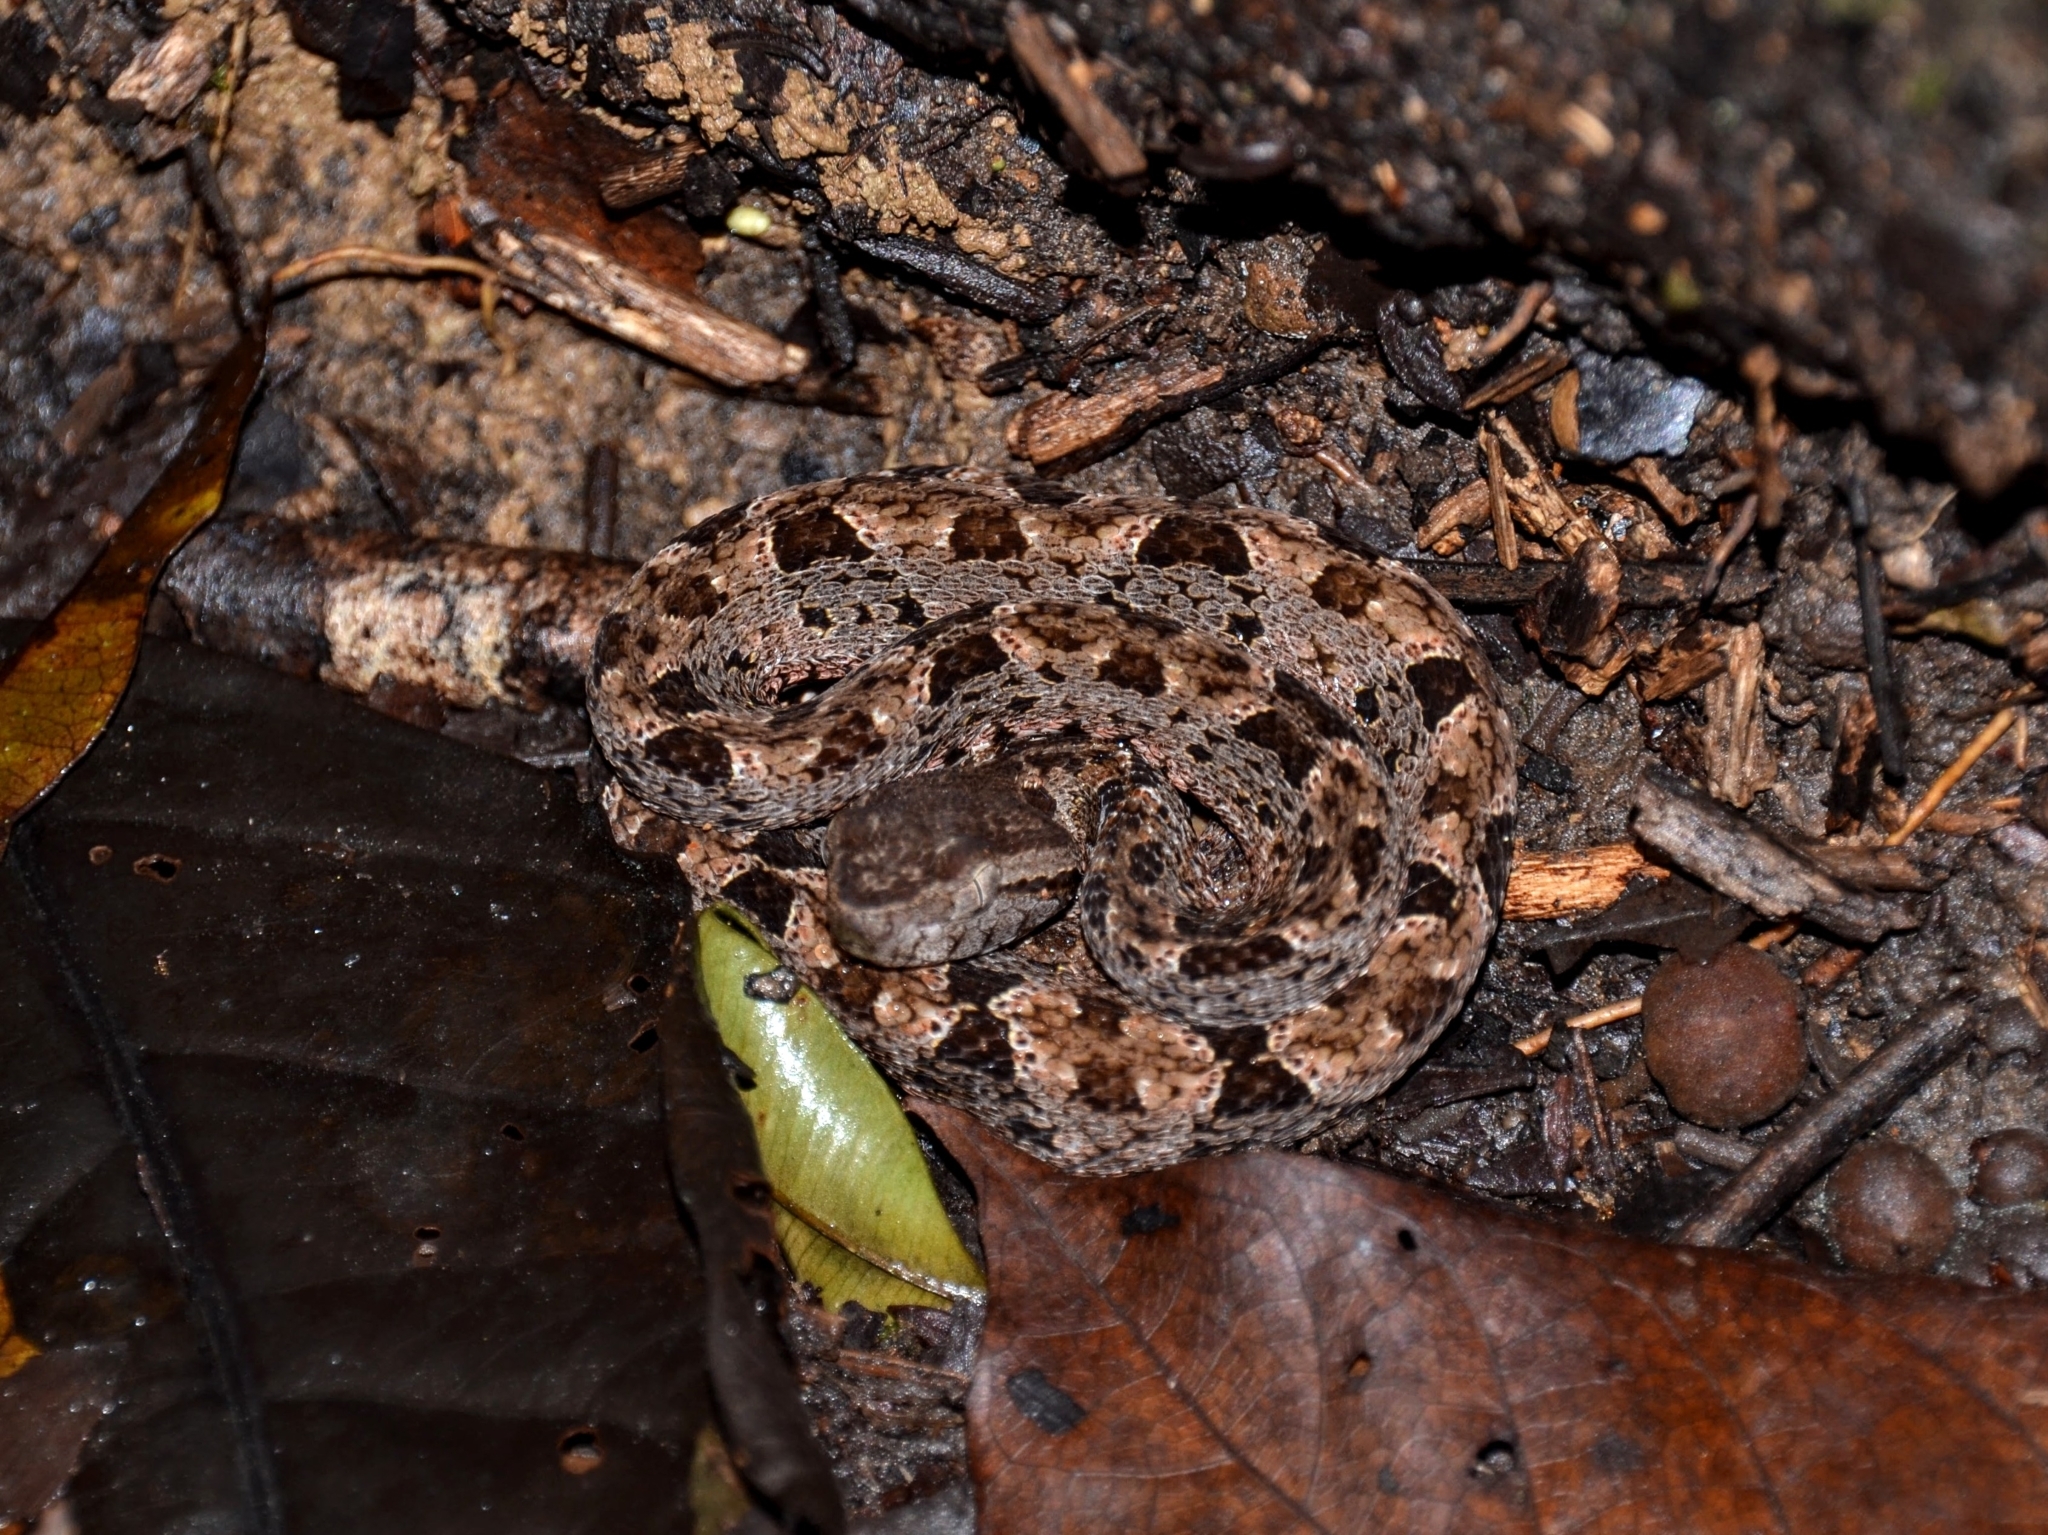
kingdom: Animalia
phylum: Chordata
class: Squamata
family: Viperidae
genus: Bothrops
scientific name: Bothrops asper
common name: Terciopelo
